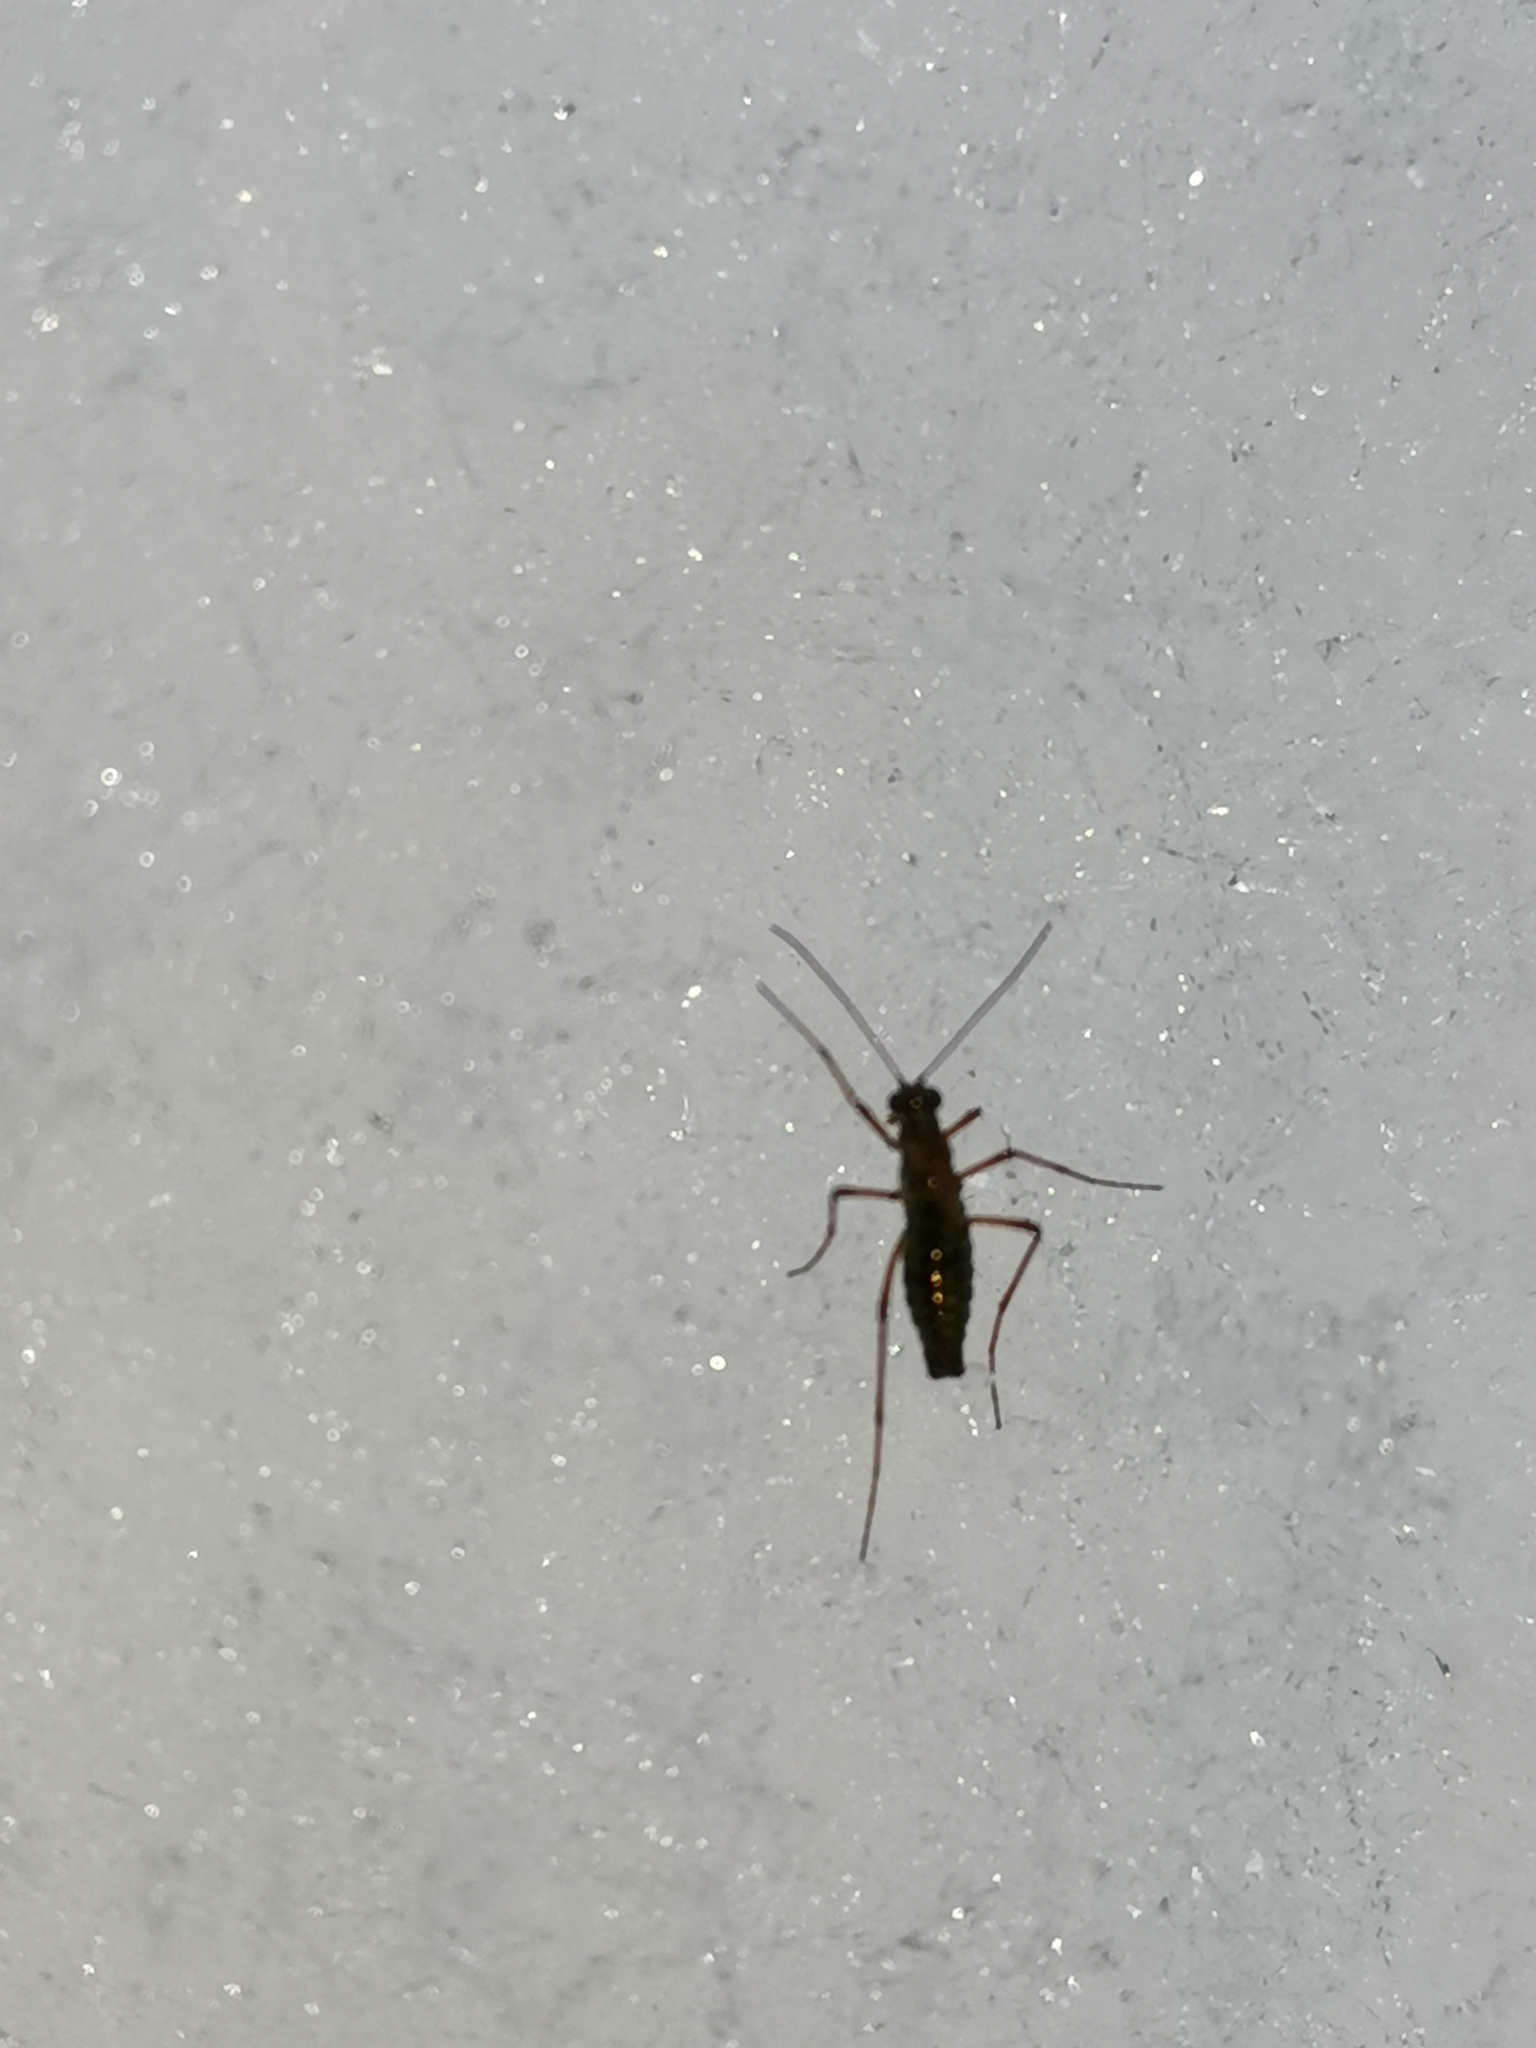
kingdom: Animalia
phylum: Arthropoda
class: Insecta
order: Mecoptera
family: Boreidae
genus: Boreus
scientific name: Boreus westwoodi
